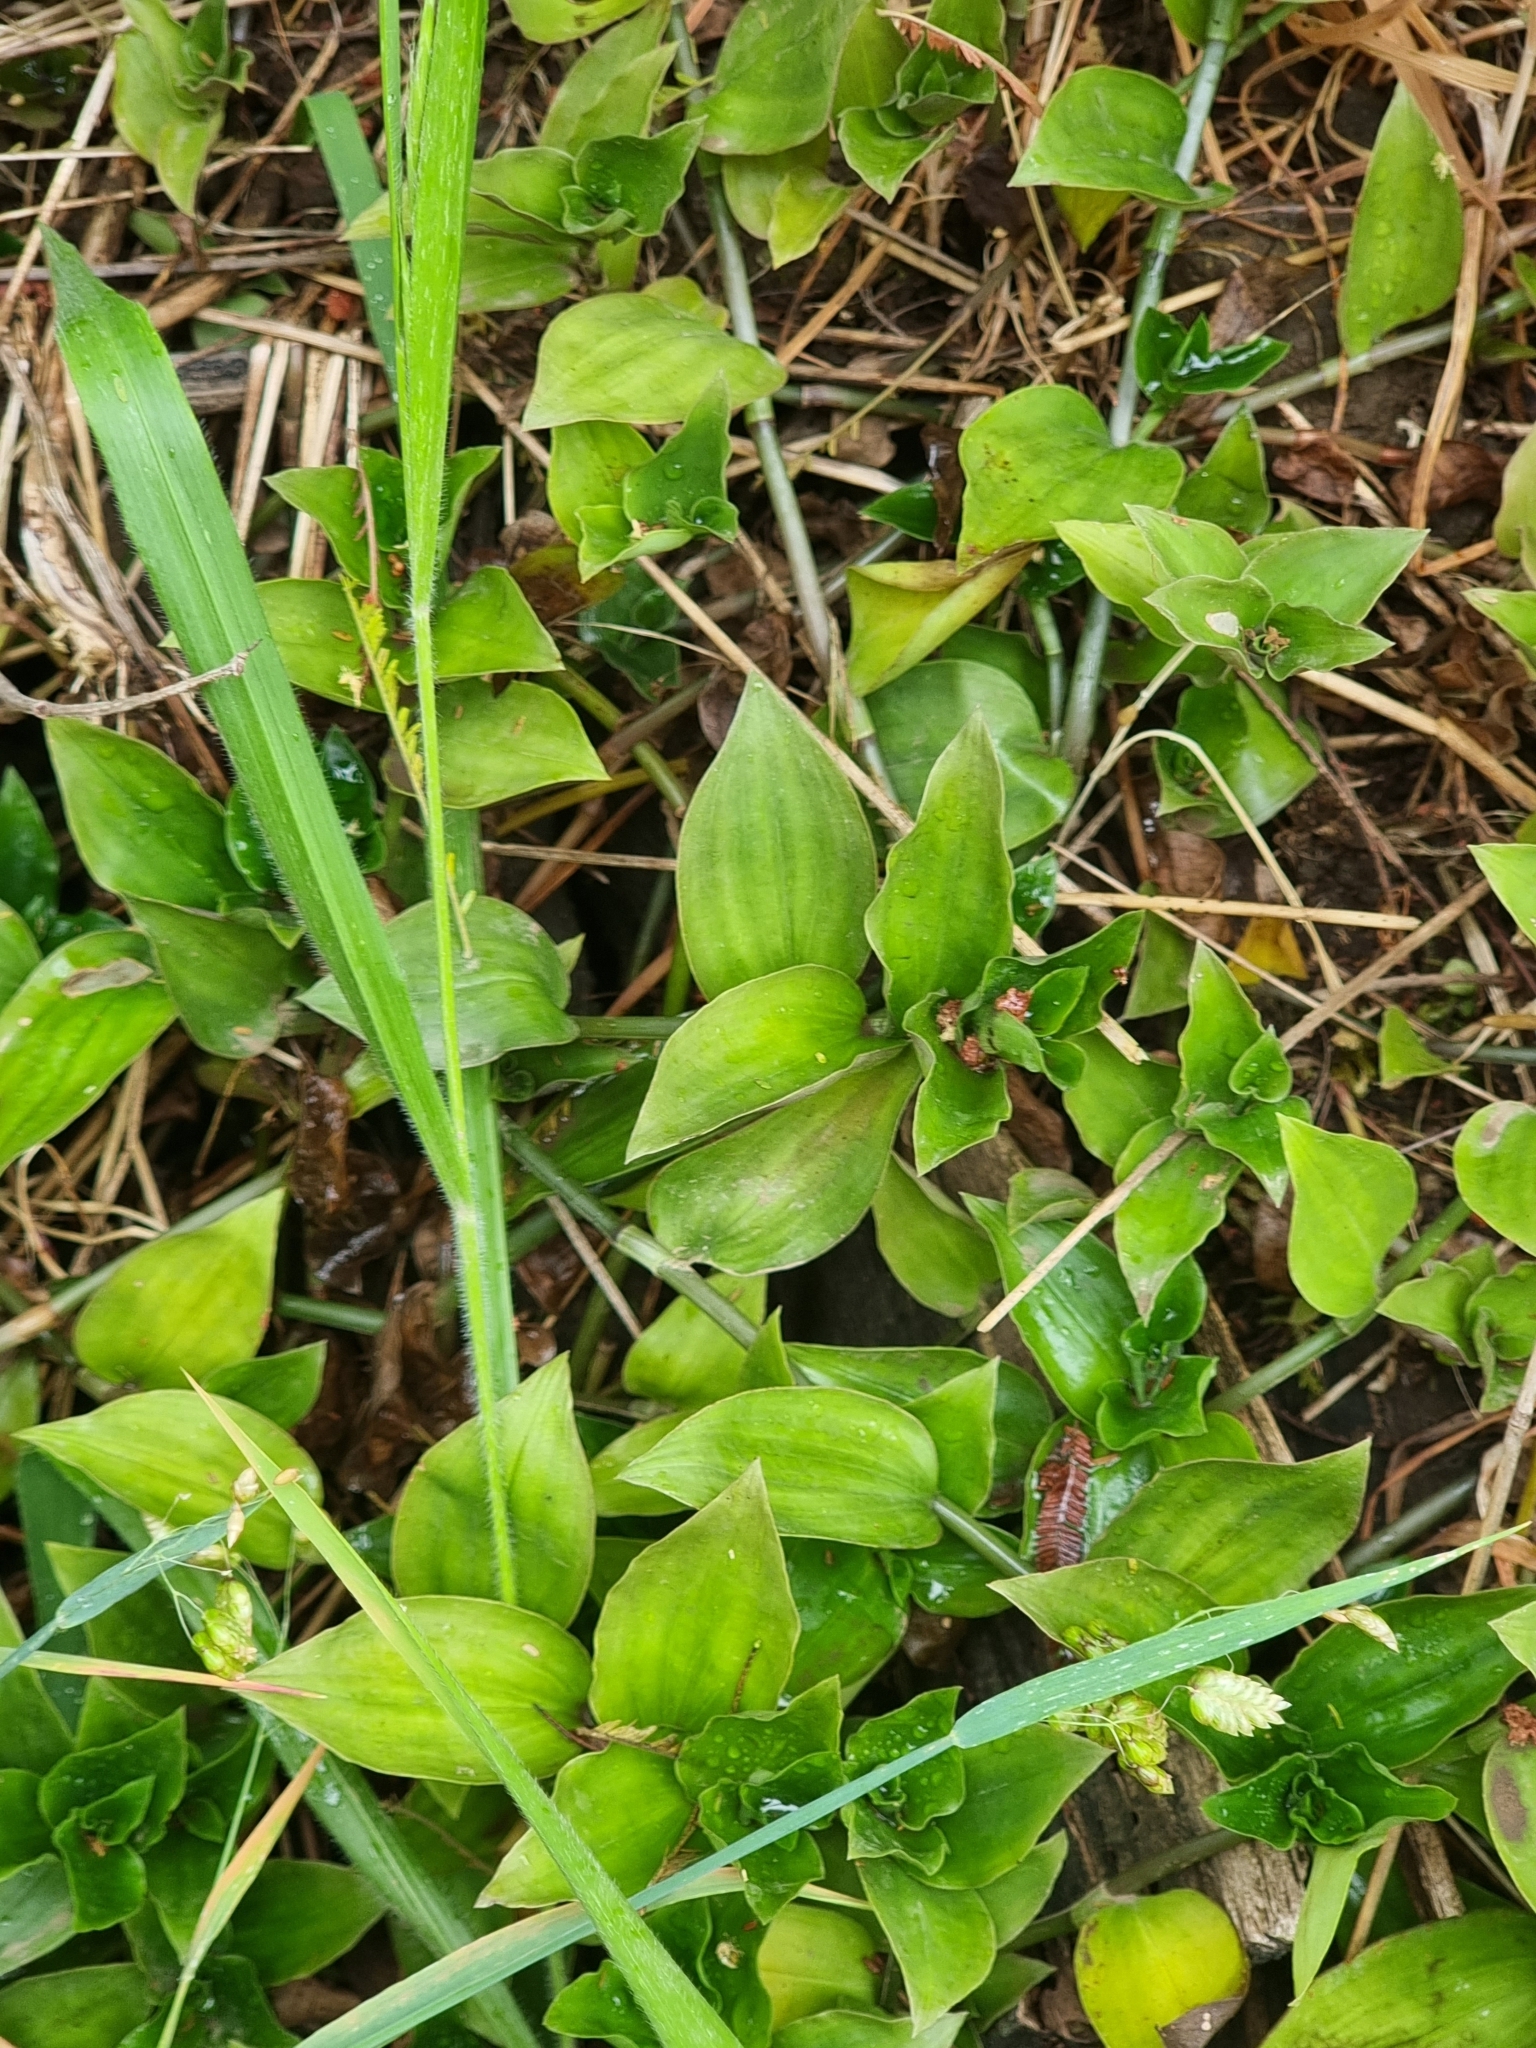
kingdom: Plantae
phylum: Tracheophyta
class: Liliopsida
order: Commelinales
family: Commelinaceae
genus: Tradescantia
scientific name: Tradescantia fluminensis
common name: Wandering-jew
